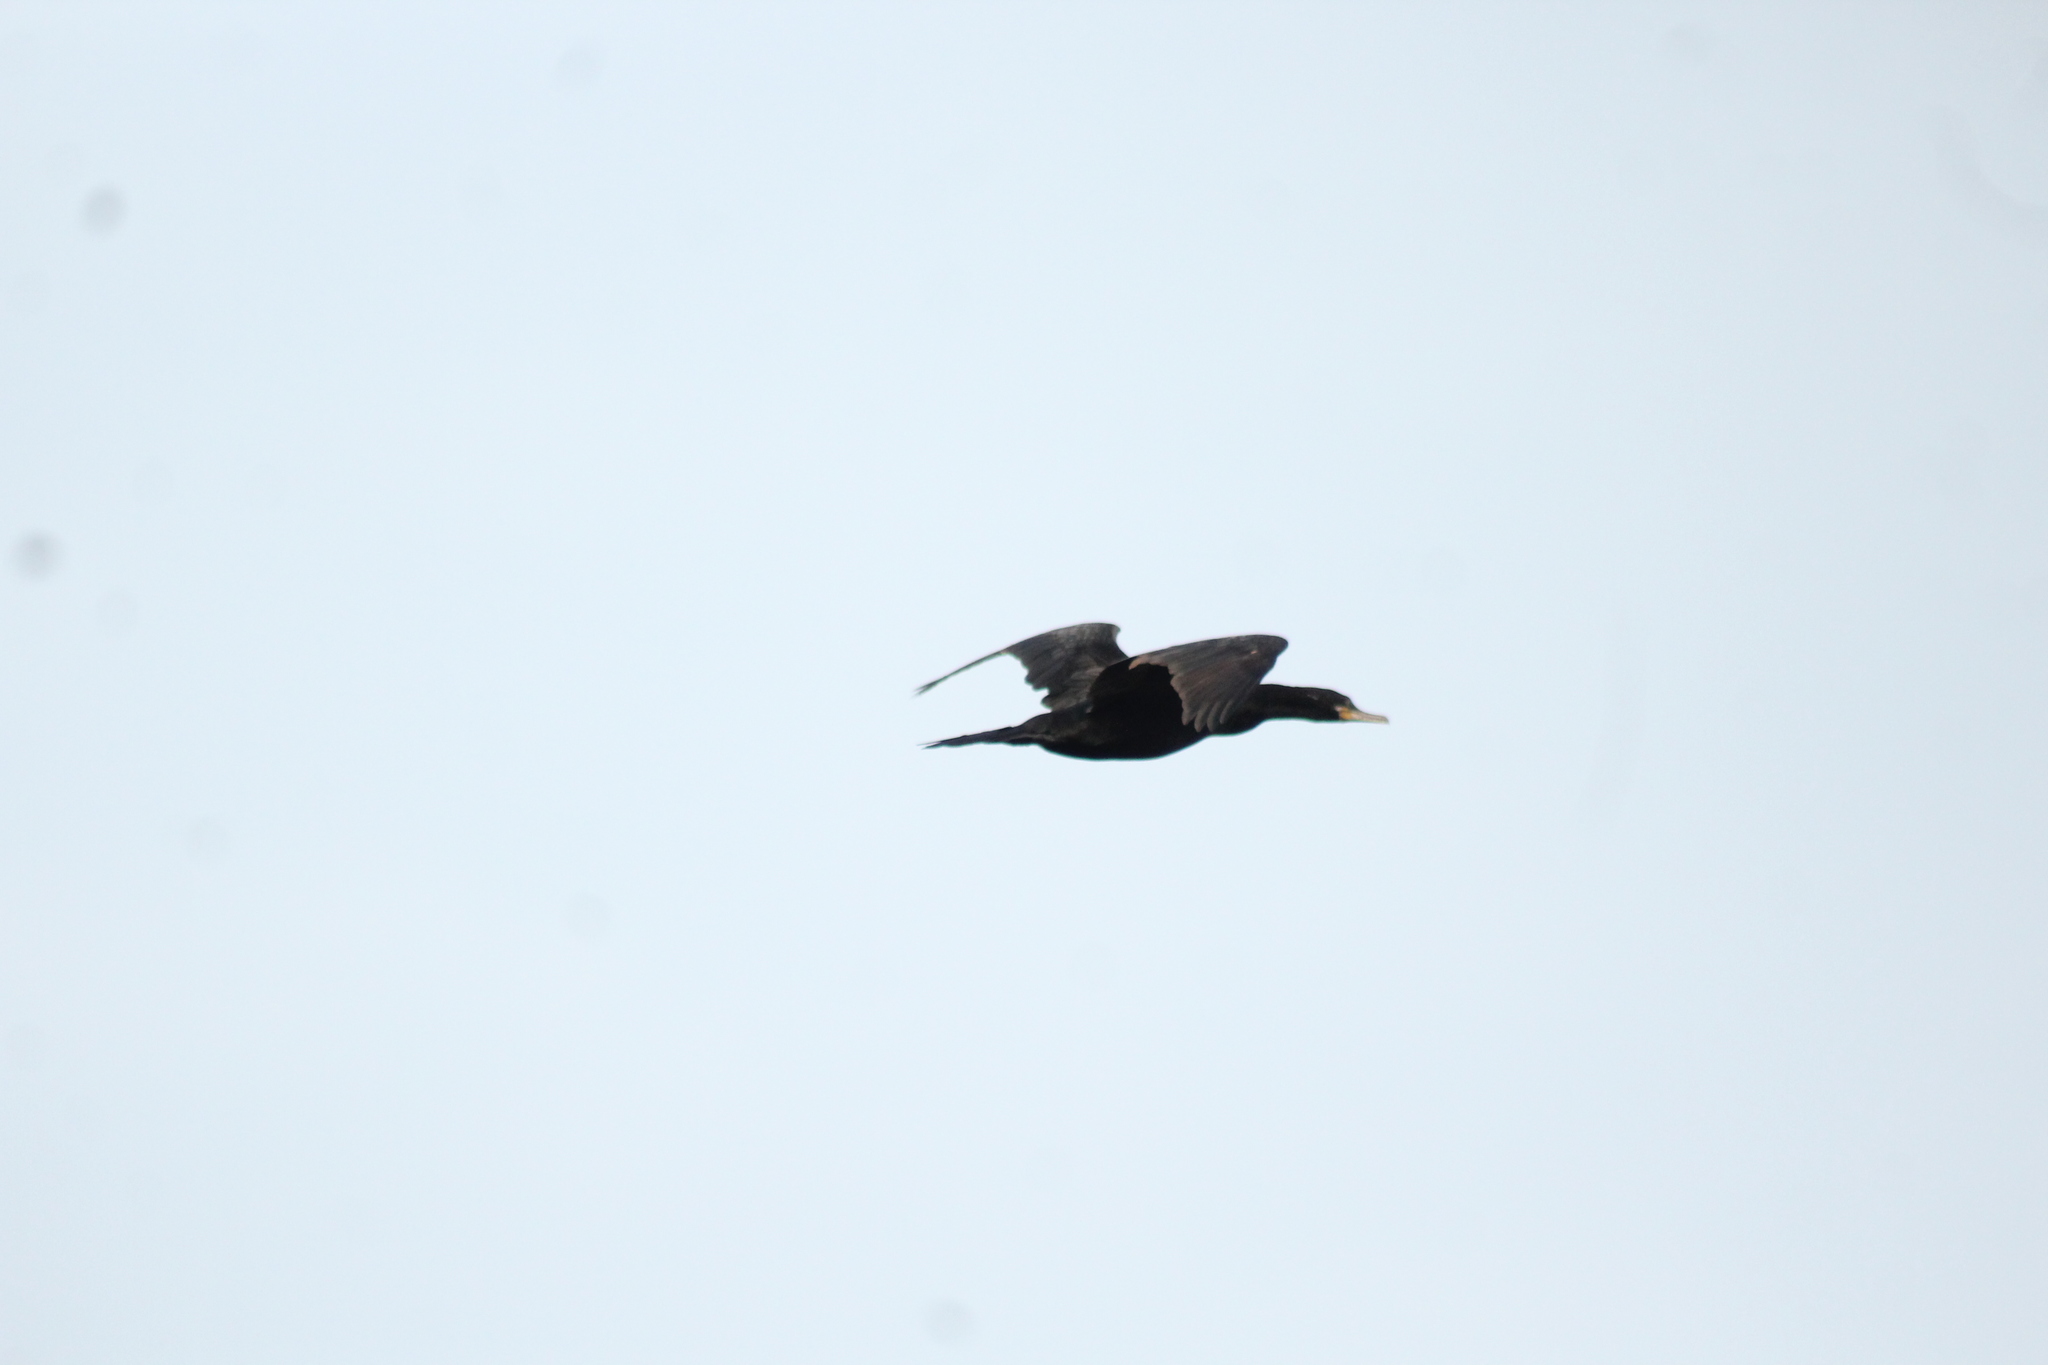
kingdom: Animalia
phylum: Chordata
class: Aves
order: Suliformes
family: Phalacrocoracidae
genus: Phalacrocorax
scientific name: Phalacrocorax brasilianus
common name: Neotropic cormorant
